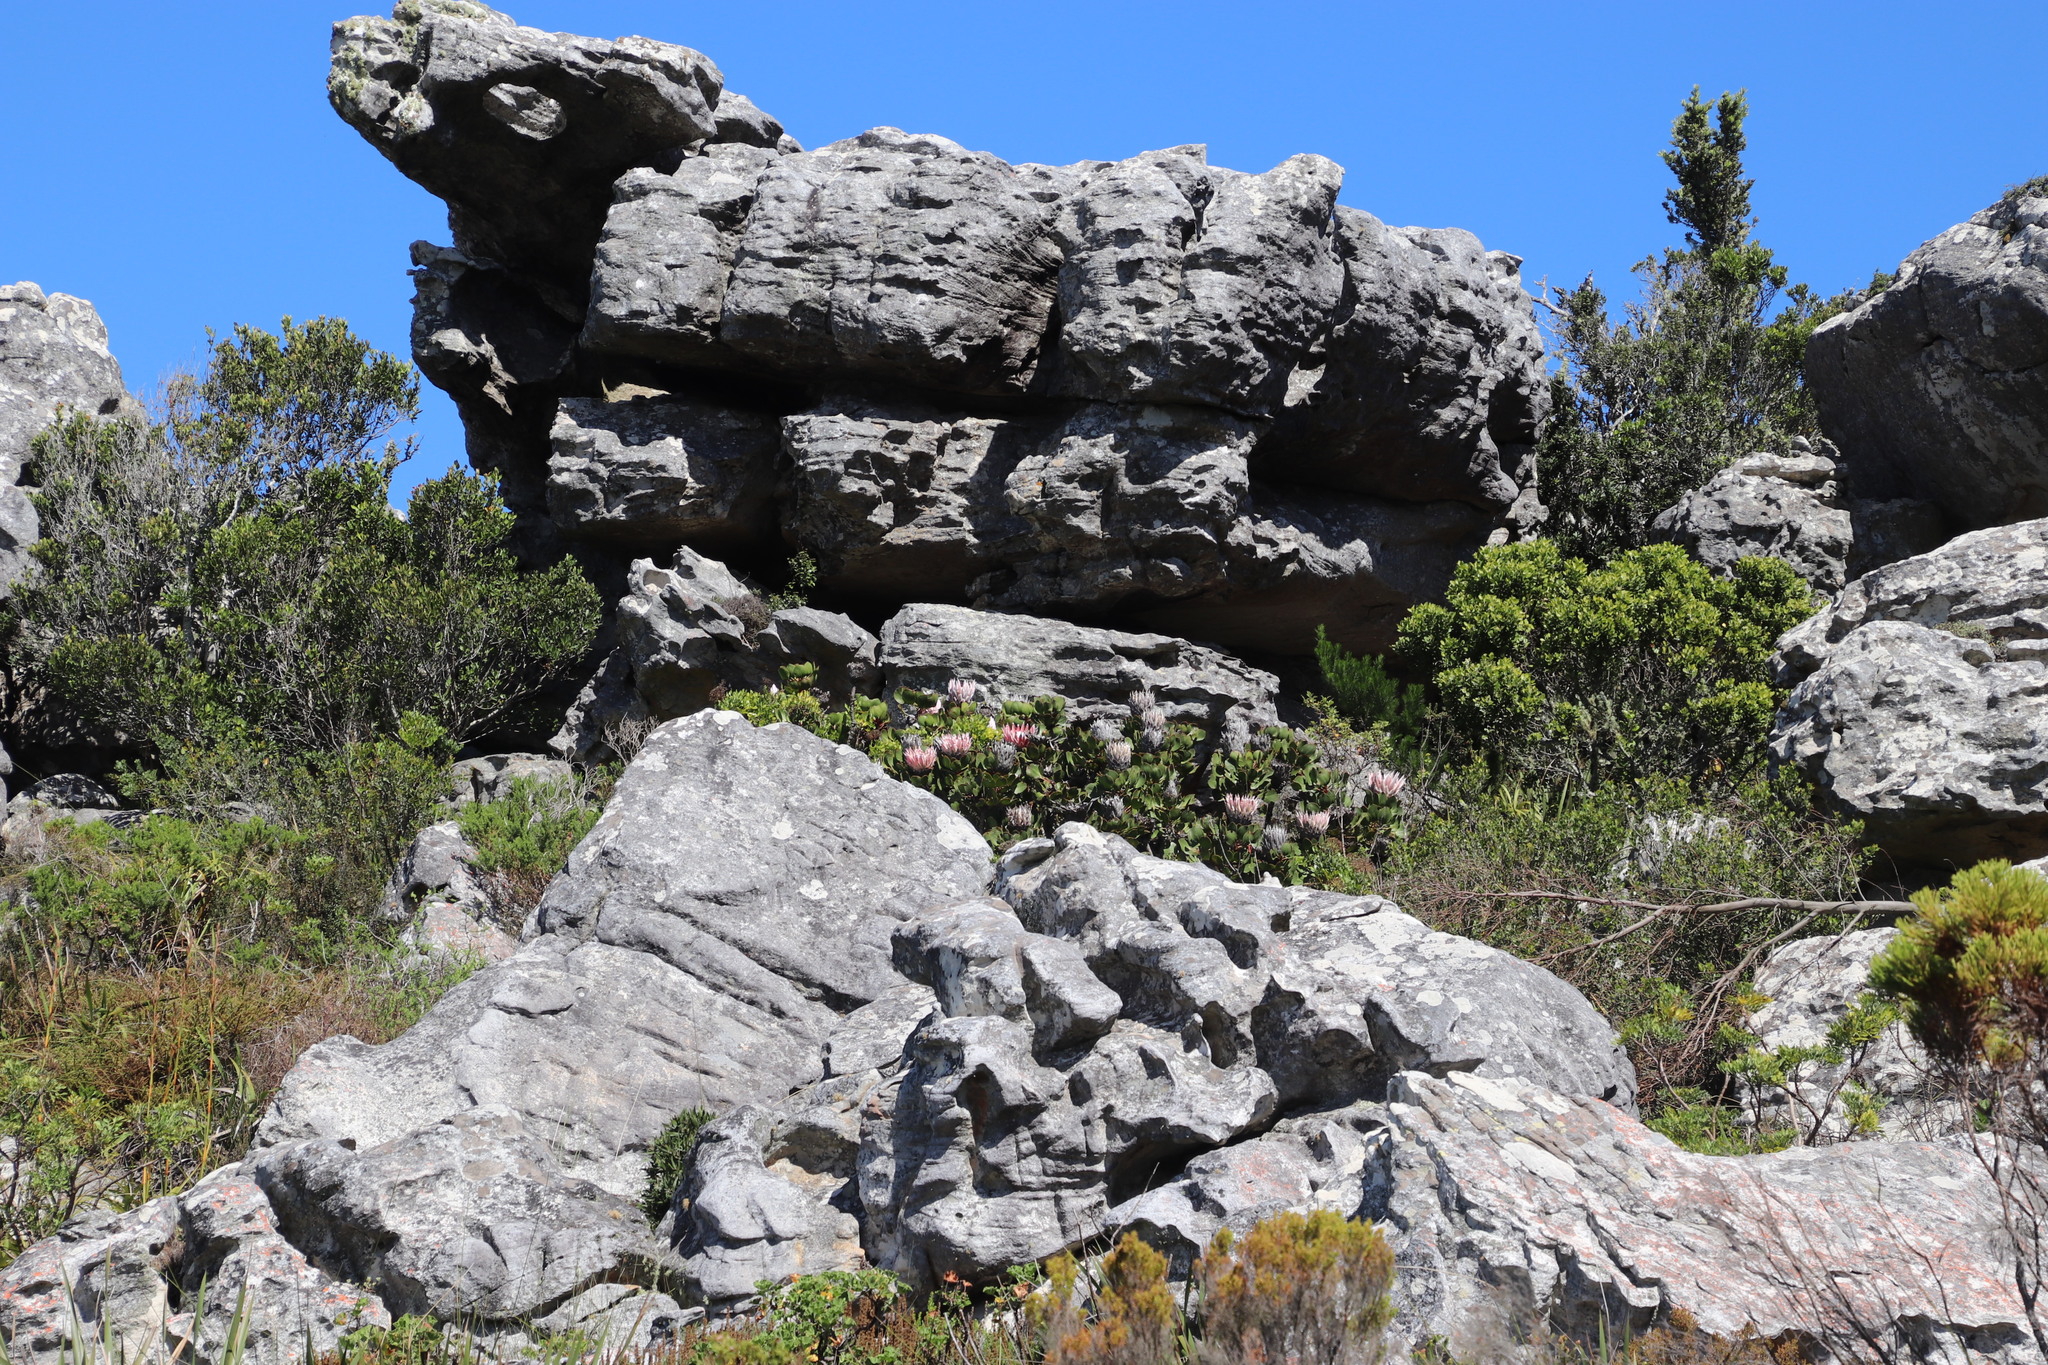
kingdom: Plantae
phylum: Tracheophyta
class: Magnoliopsida
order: Proteales
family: Proteaceae
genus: Protea
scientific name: Protea cynaroides
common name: King protea
